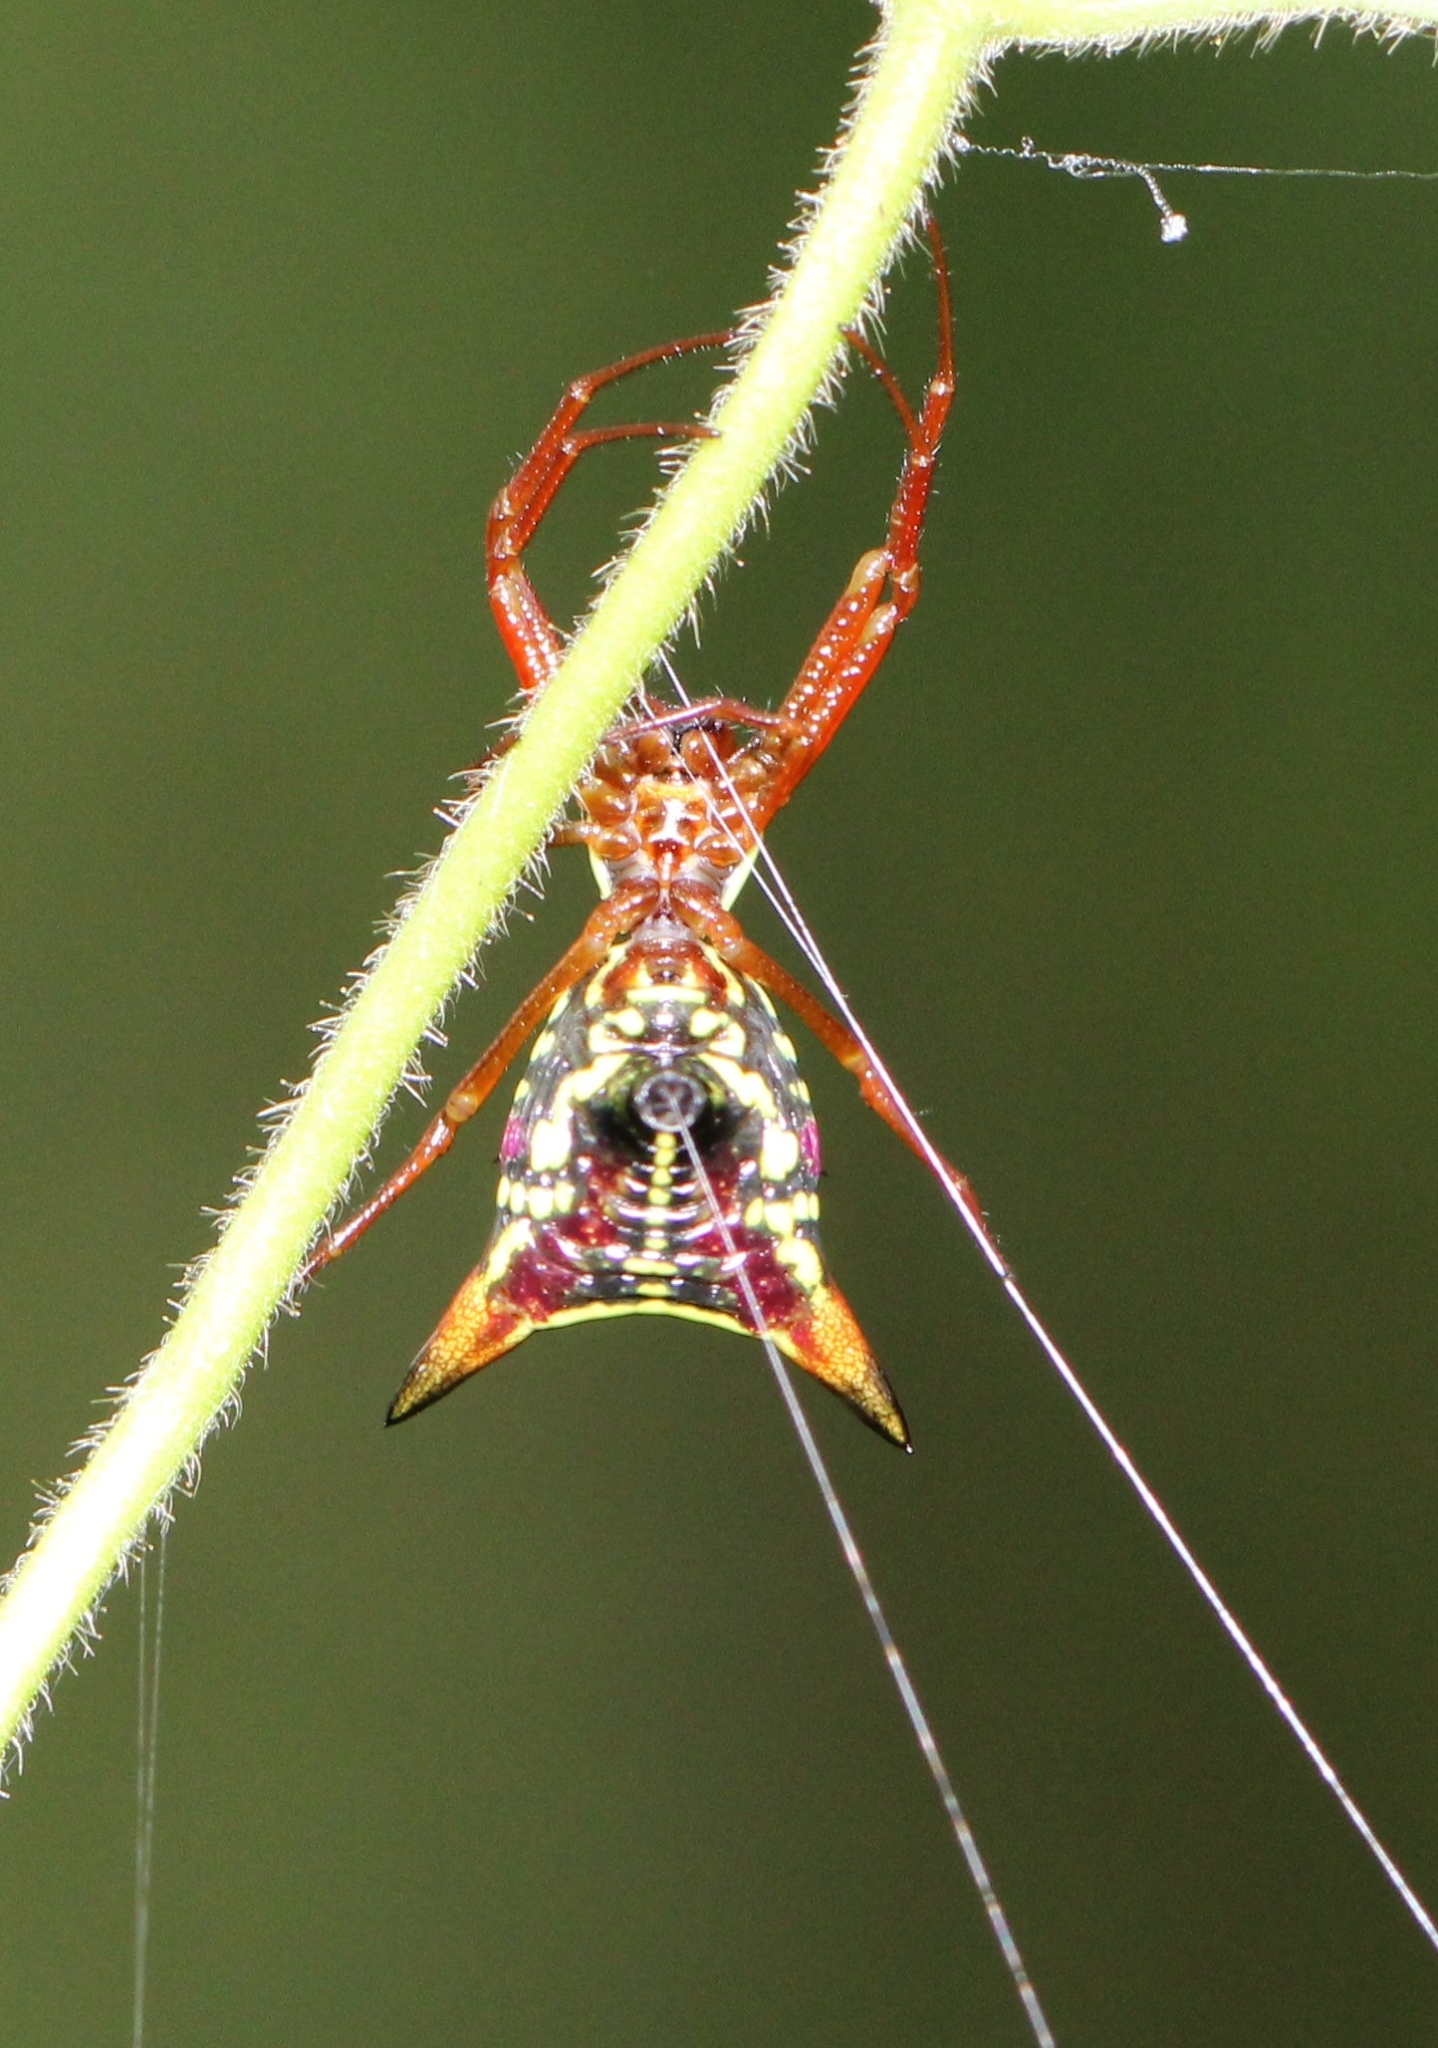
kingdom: Animalia
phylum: Arthropoda
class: Arachnida
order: Araneae
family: Araneidae
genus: Micrathena
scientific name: Micrathena sagittata
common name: Orb weavers
